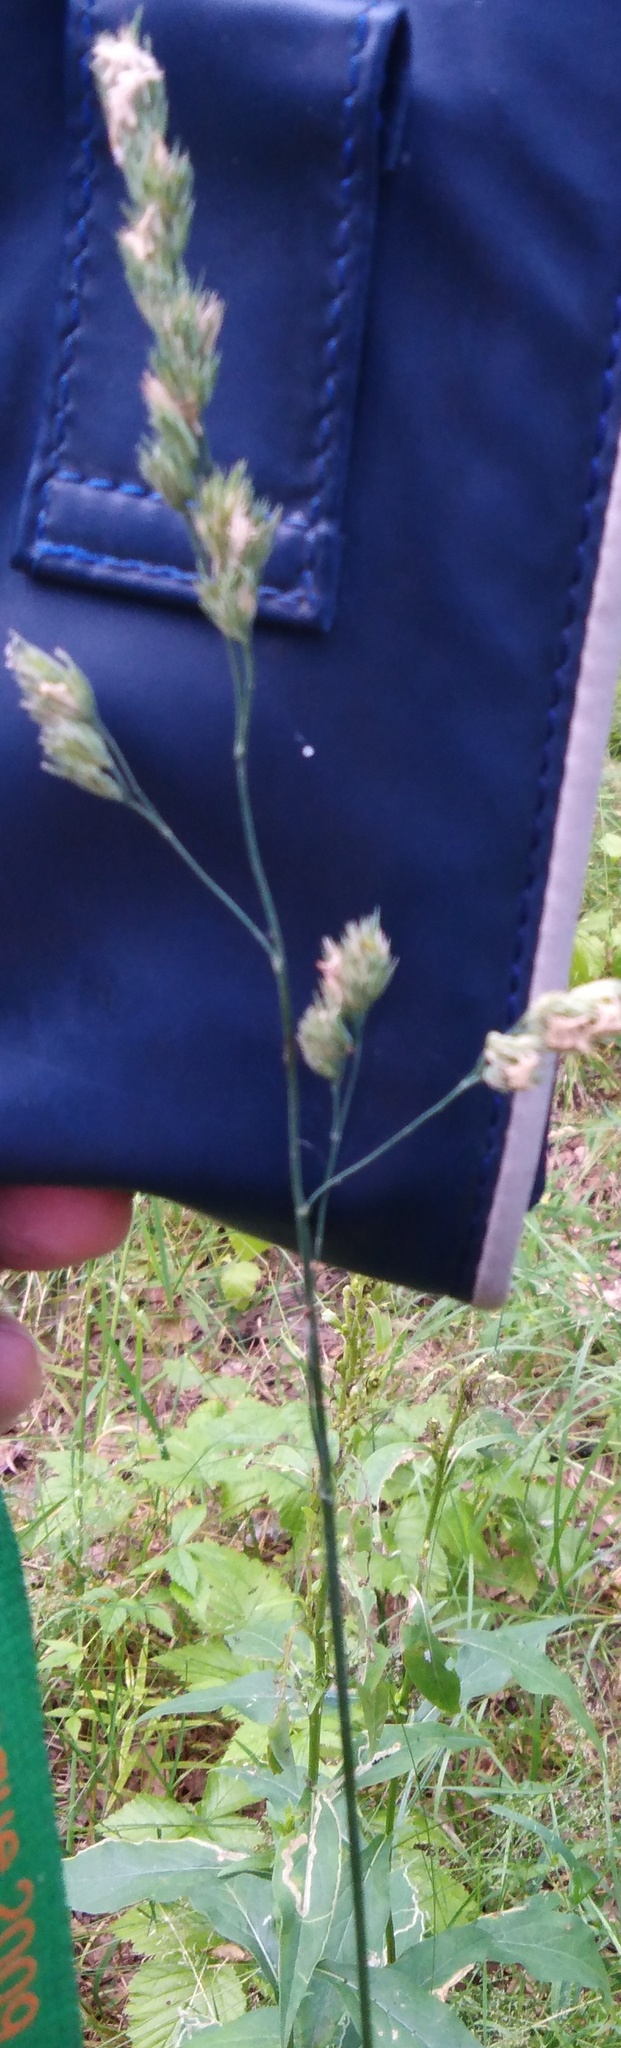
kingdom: Plantae
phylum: Tracheophyta
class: Liliopsida
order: Poales
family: Poaceae
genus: Dactylis
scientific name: Dactylis glomerata
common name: Orchardgrass
